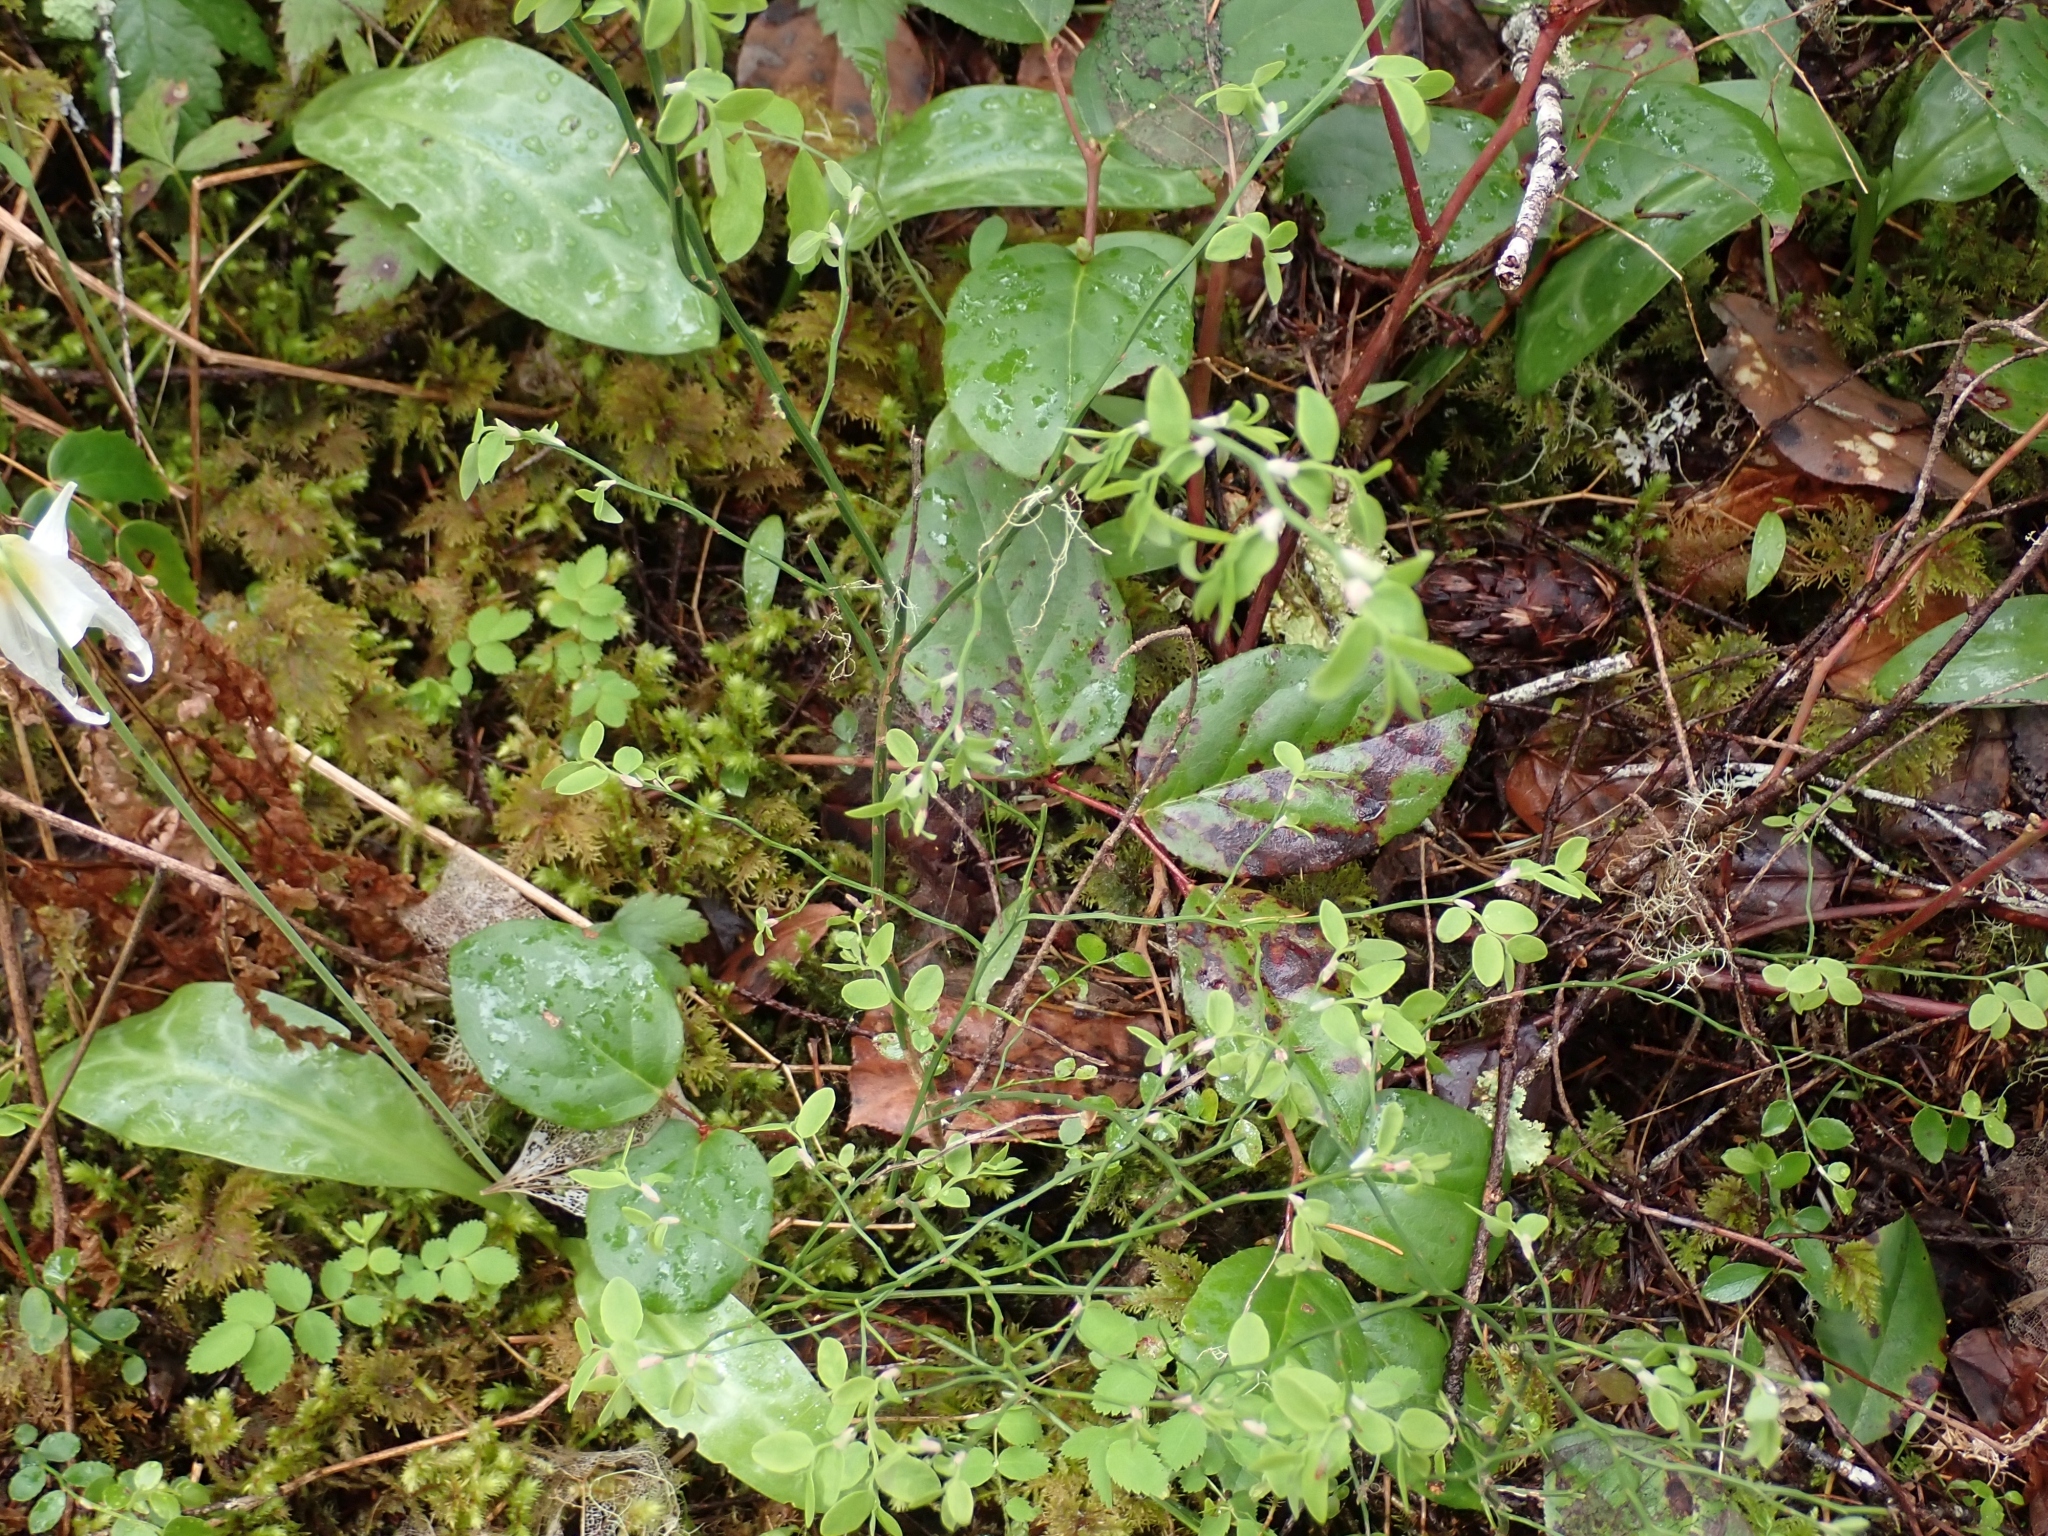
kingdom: Plantae
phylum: Tracheophyta
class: Magnoliopsida
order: Ericales
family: Ericaceae
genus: Vaccinium
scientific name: Vaccinium parvifolium
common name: Red-huckleberry
